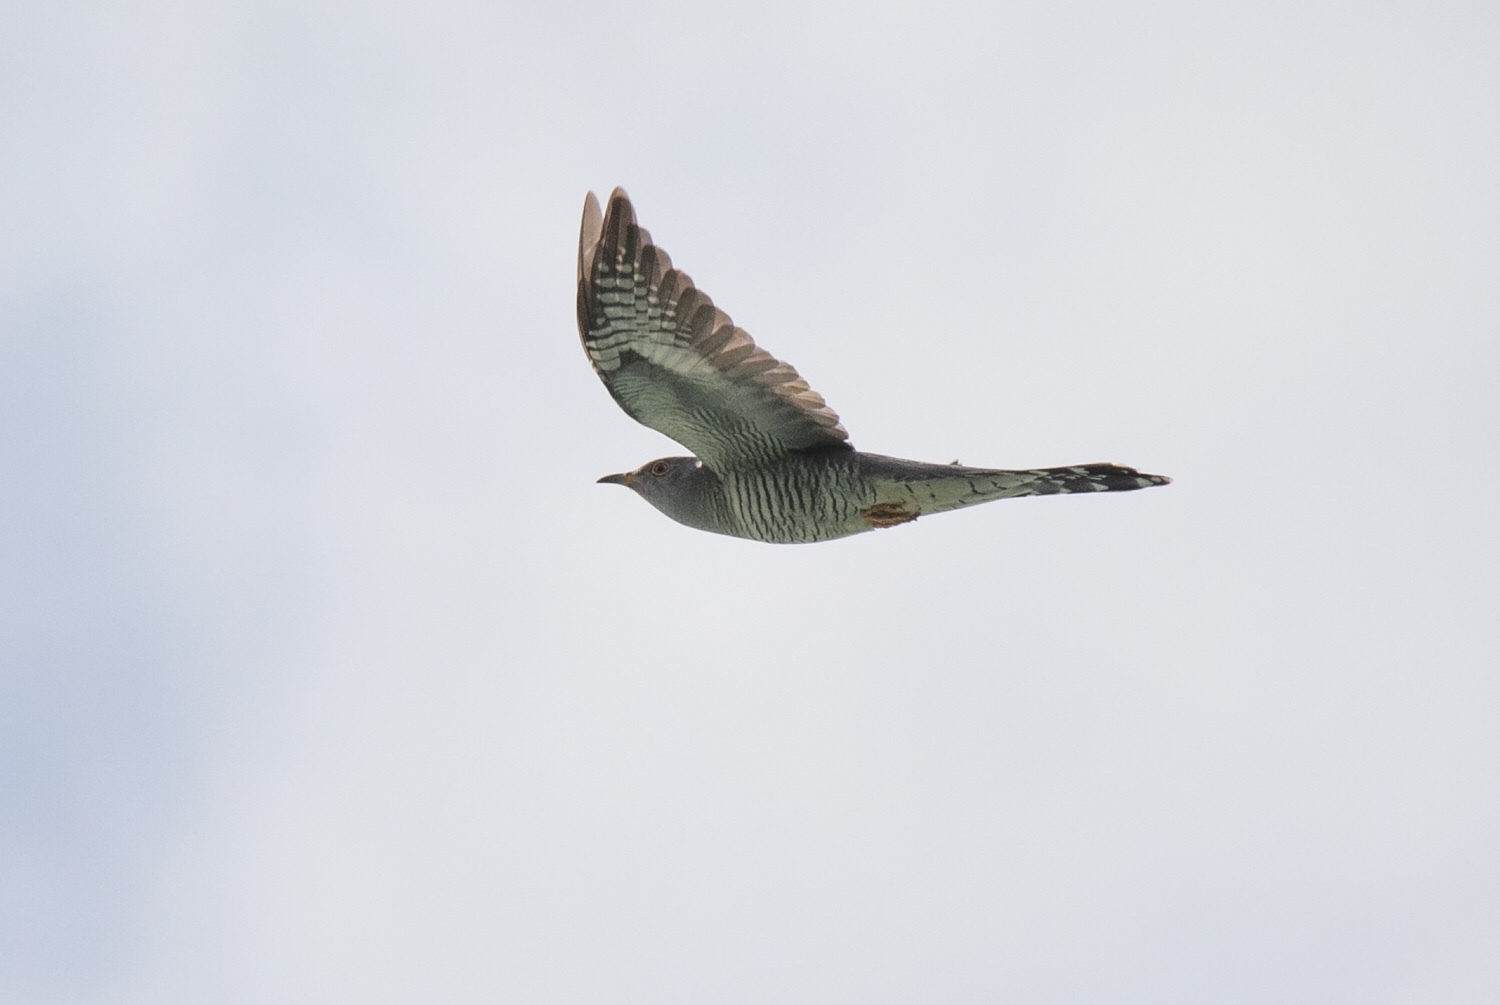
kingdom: Animalia
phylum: Chordata
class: Aves
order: Cuculiformes
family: Cuculidae
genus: Cuculus
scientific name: Cuculus canorus
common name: Common cuckoo
